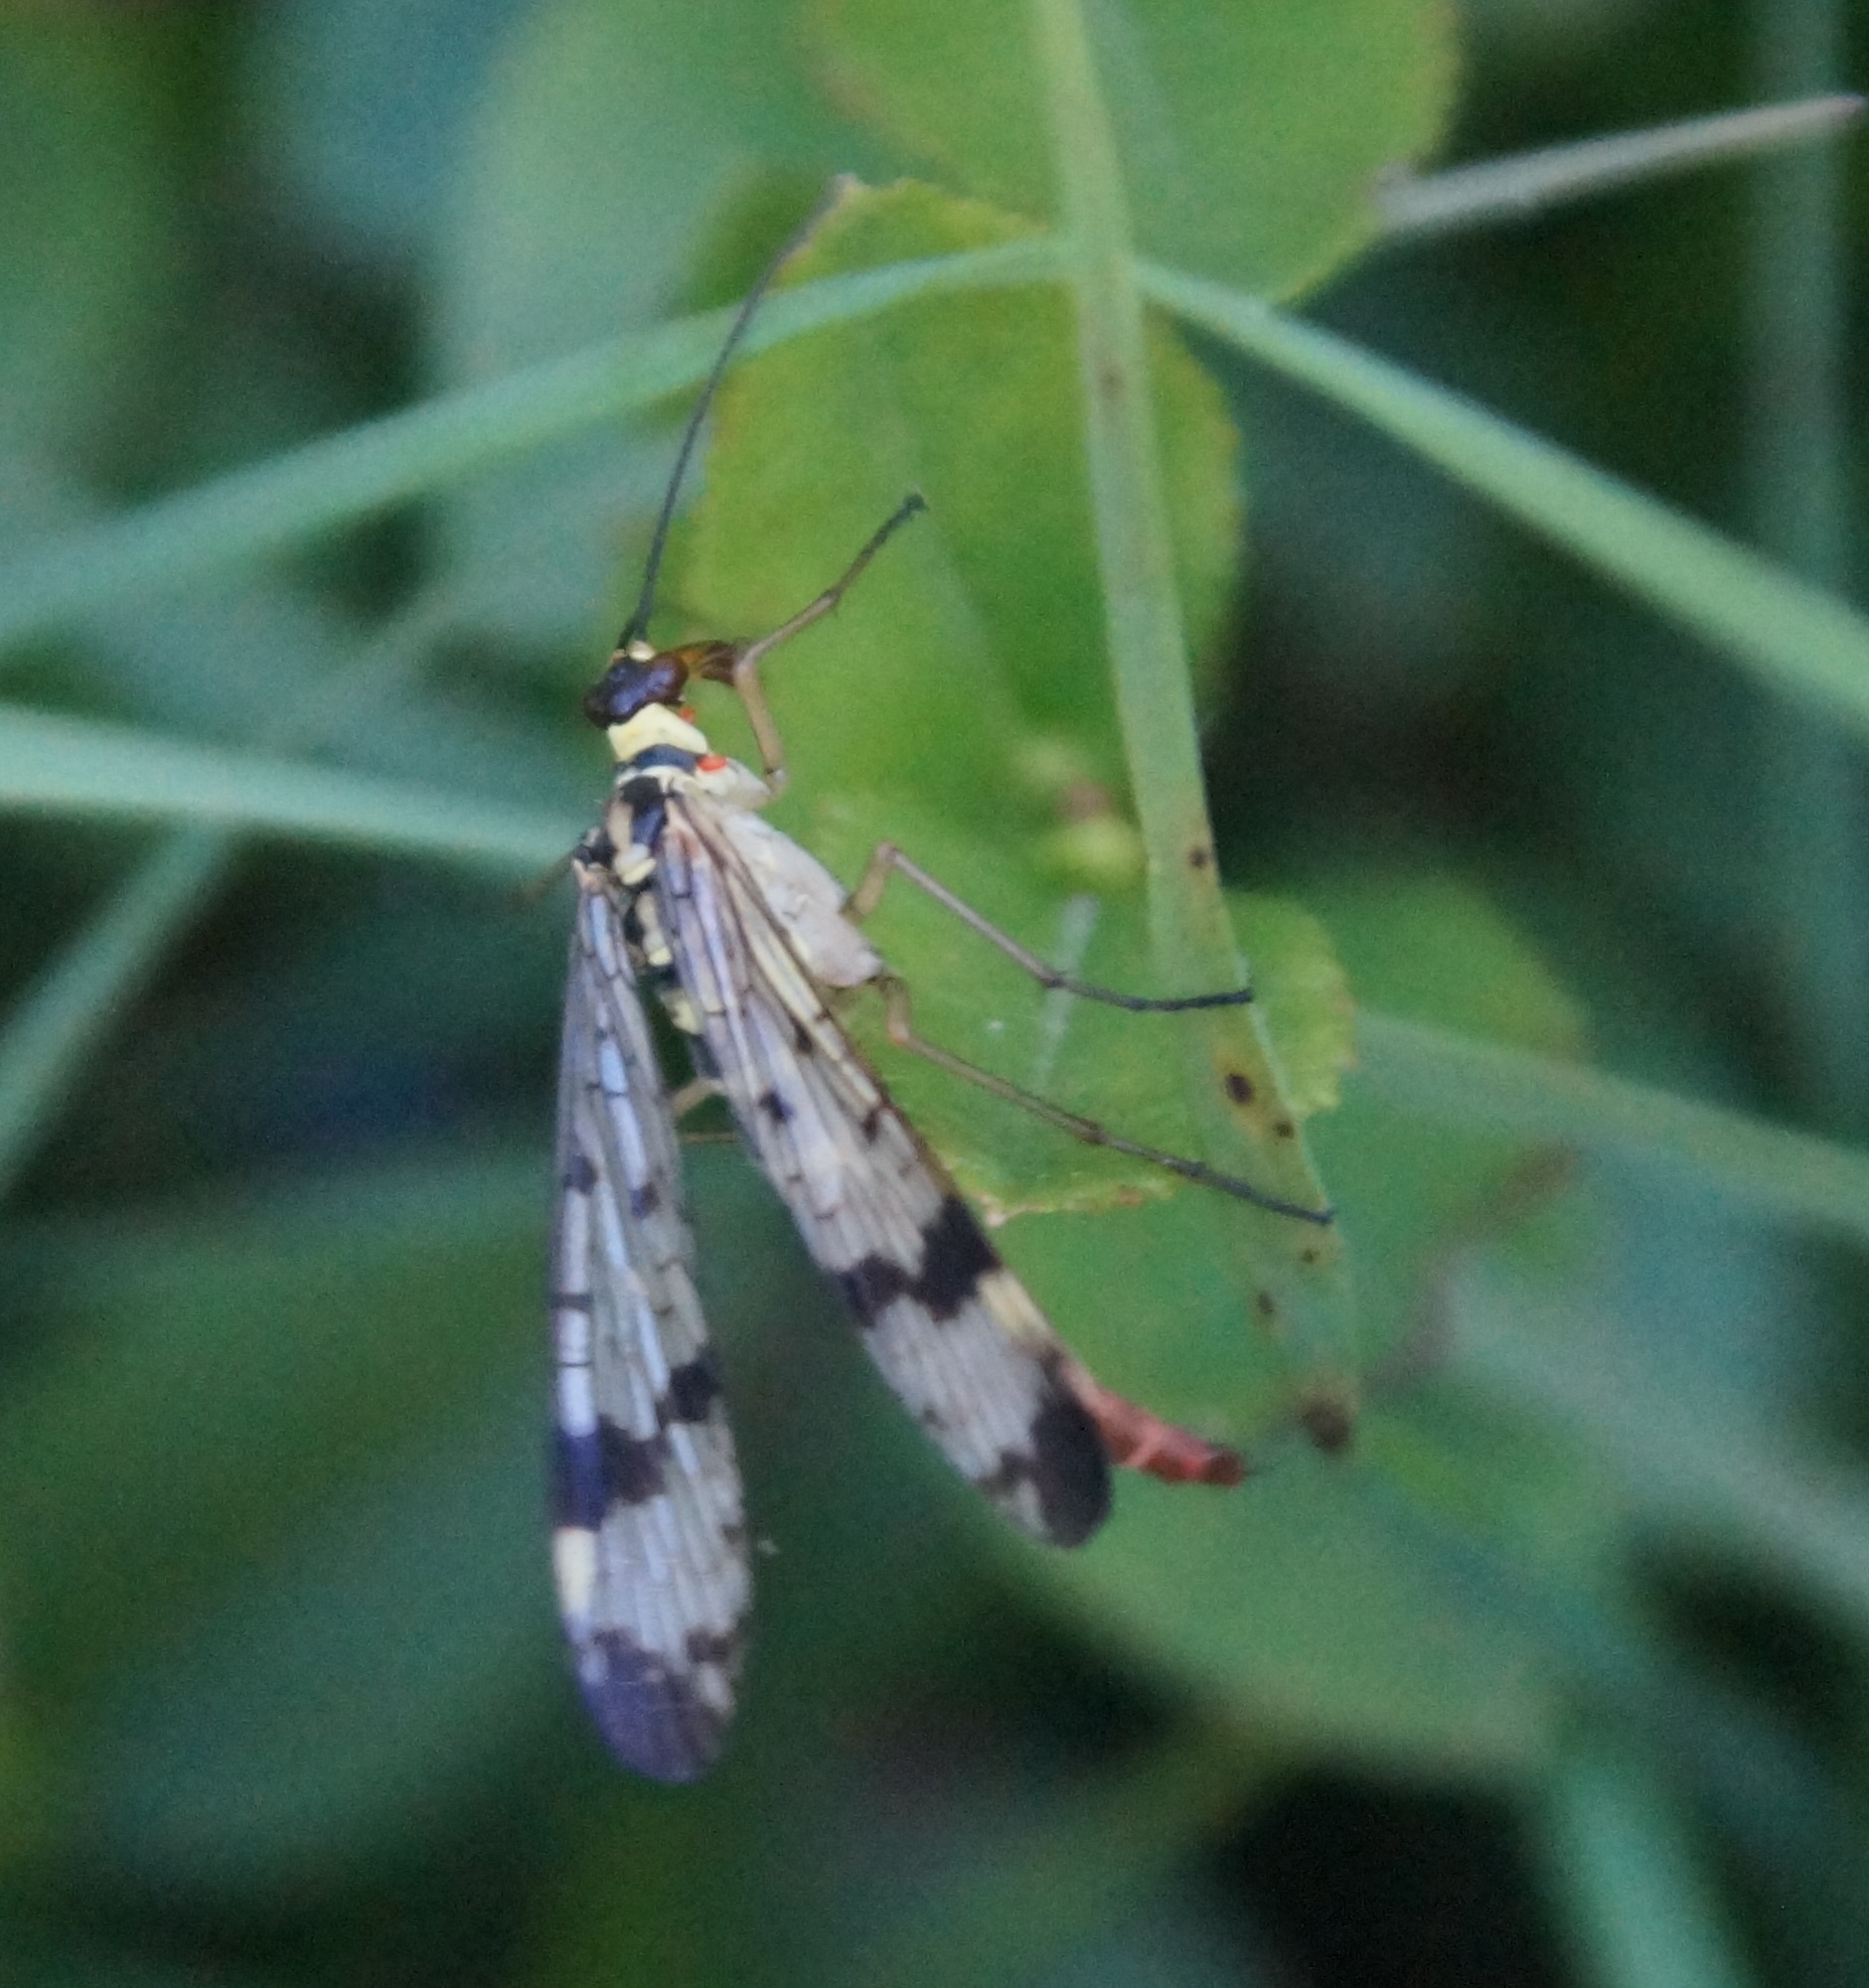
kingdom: Animalia
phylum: Arthropoda
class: Insecta
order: Mecoptera
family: Panorpidae
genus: Panorpa
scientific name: Panorpa communis
